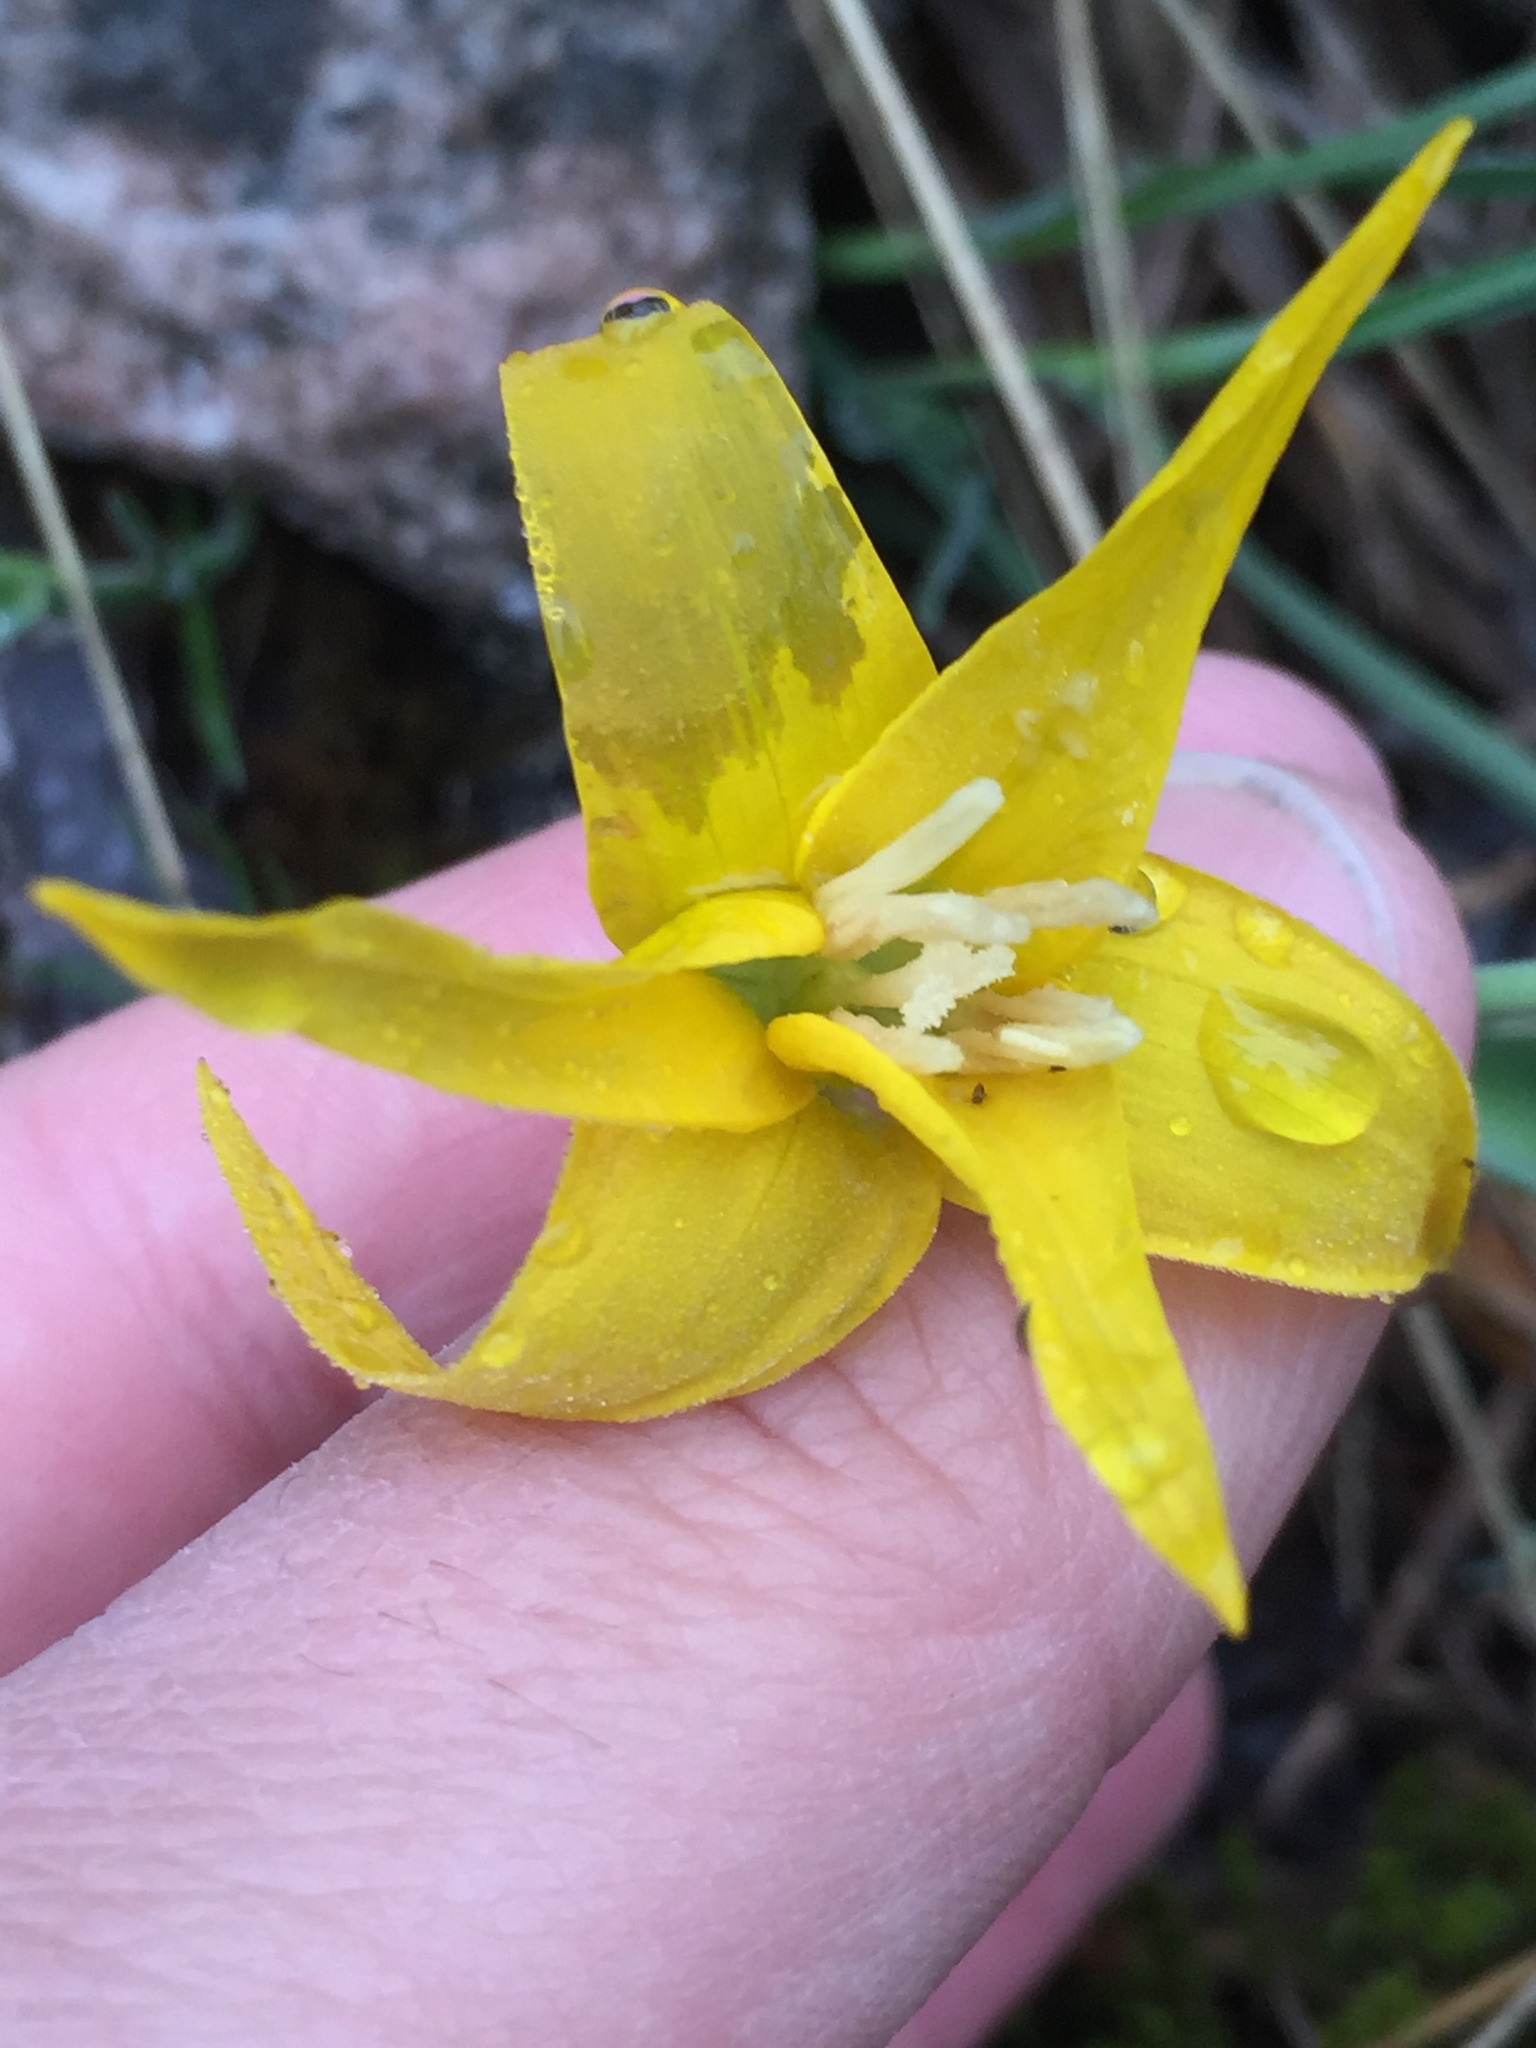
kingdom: Plantae
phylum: Tracheophyta
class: Liliopsida
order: Liliales
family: Liliaceae
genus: Erythronium
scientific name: Erythronium grandiflorum
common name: Avalanche-lily
